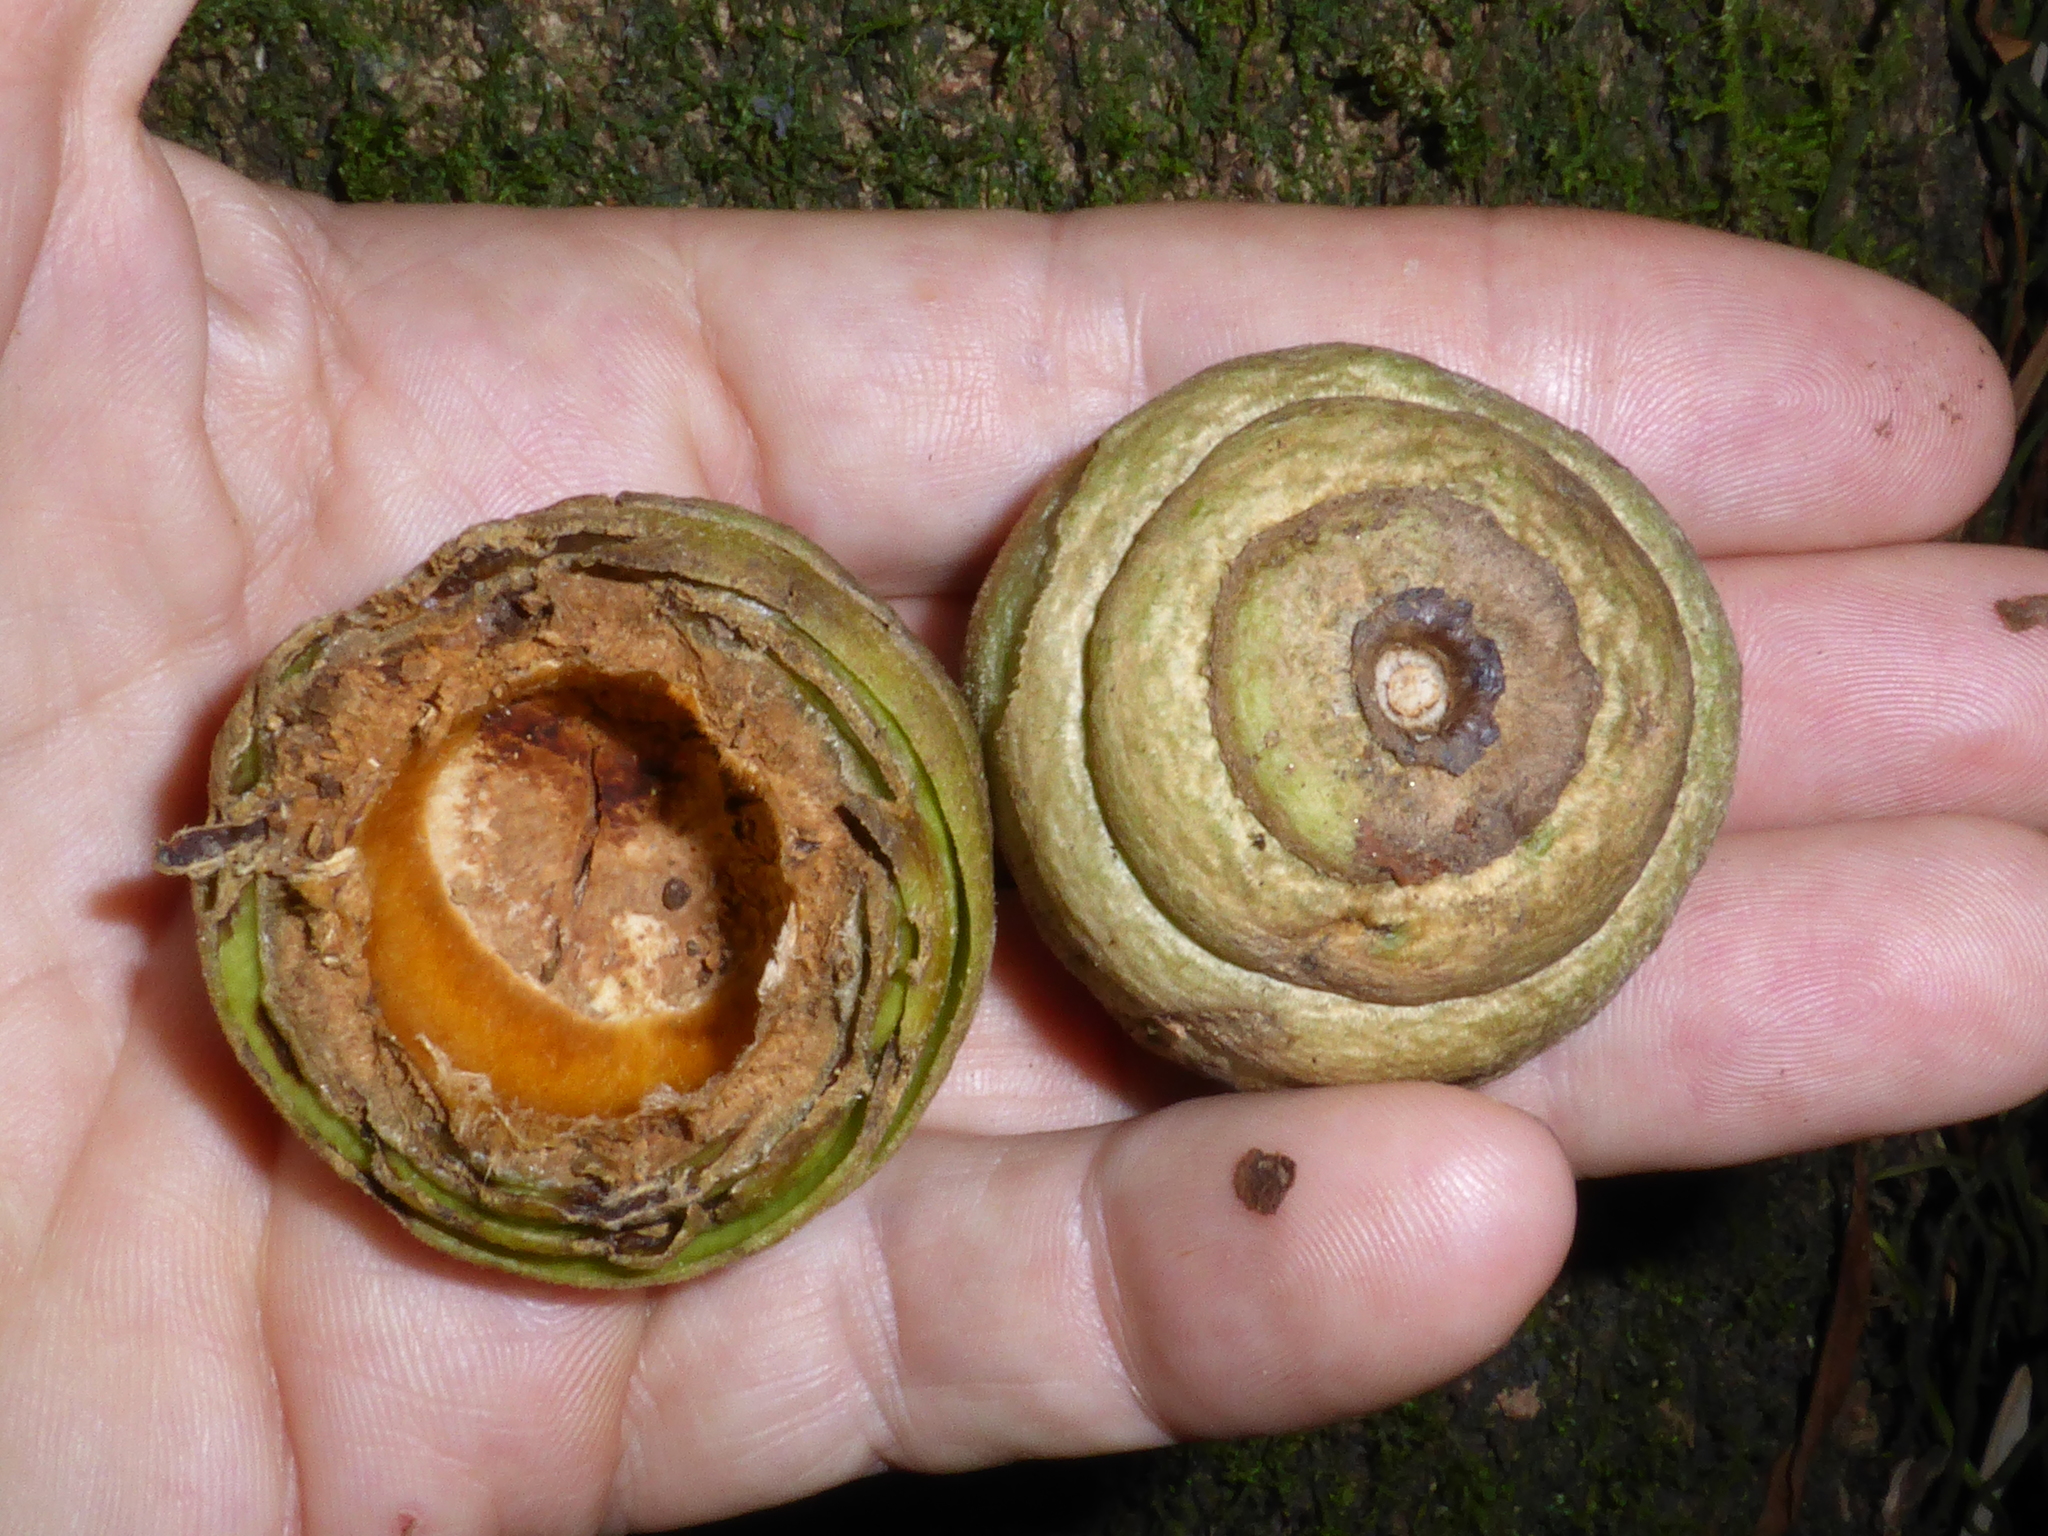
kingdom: Plantae
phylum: Tracheophyta
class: Magnoliopsida
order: Fagales
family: Fagaceae
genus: Quercus
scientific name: Quercus lamellosa
